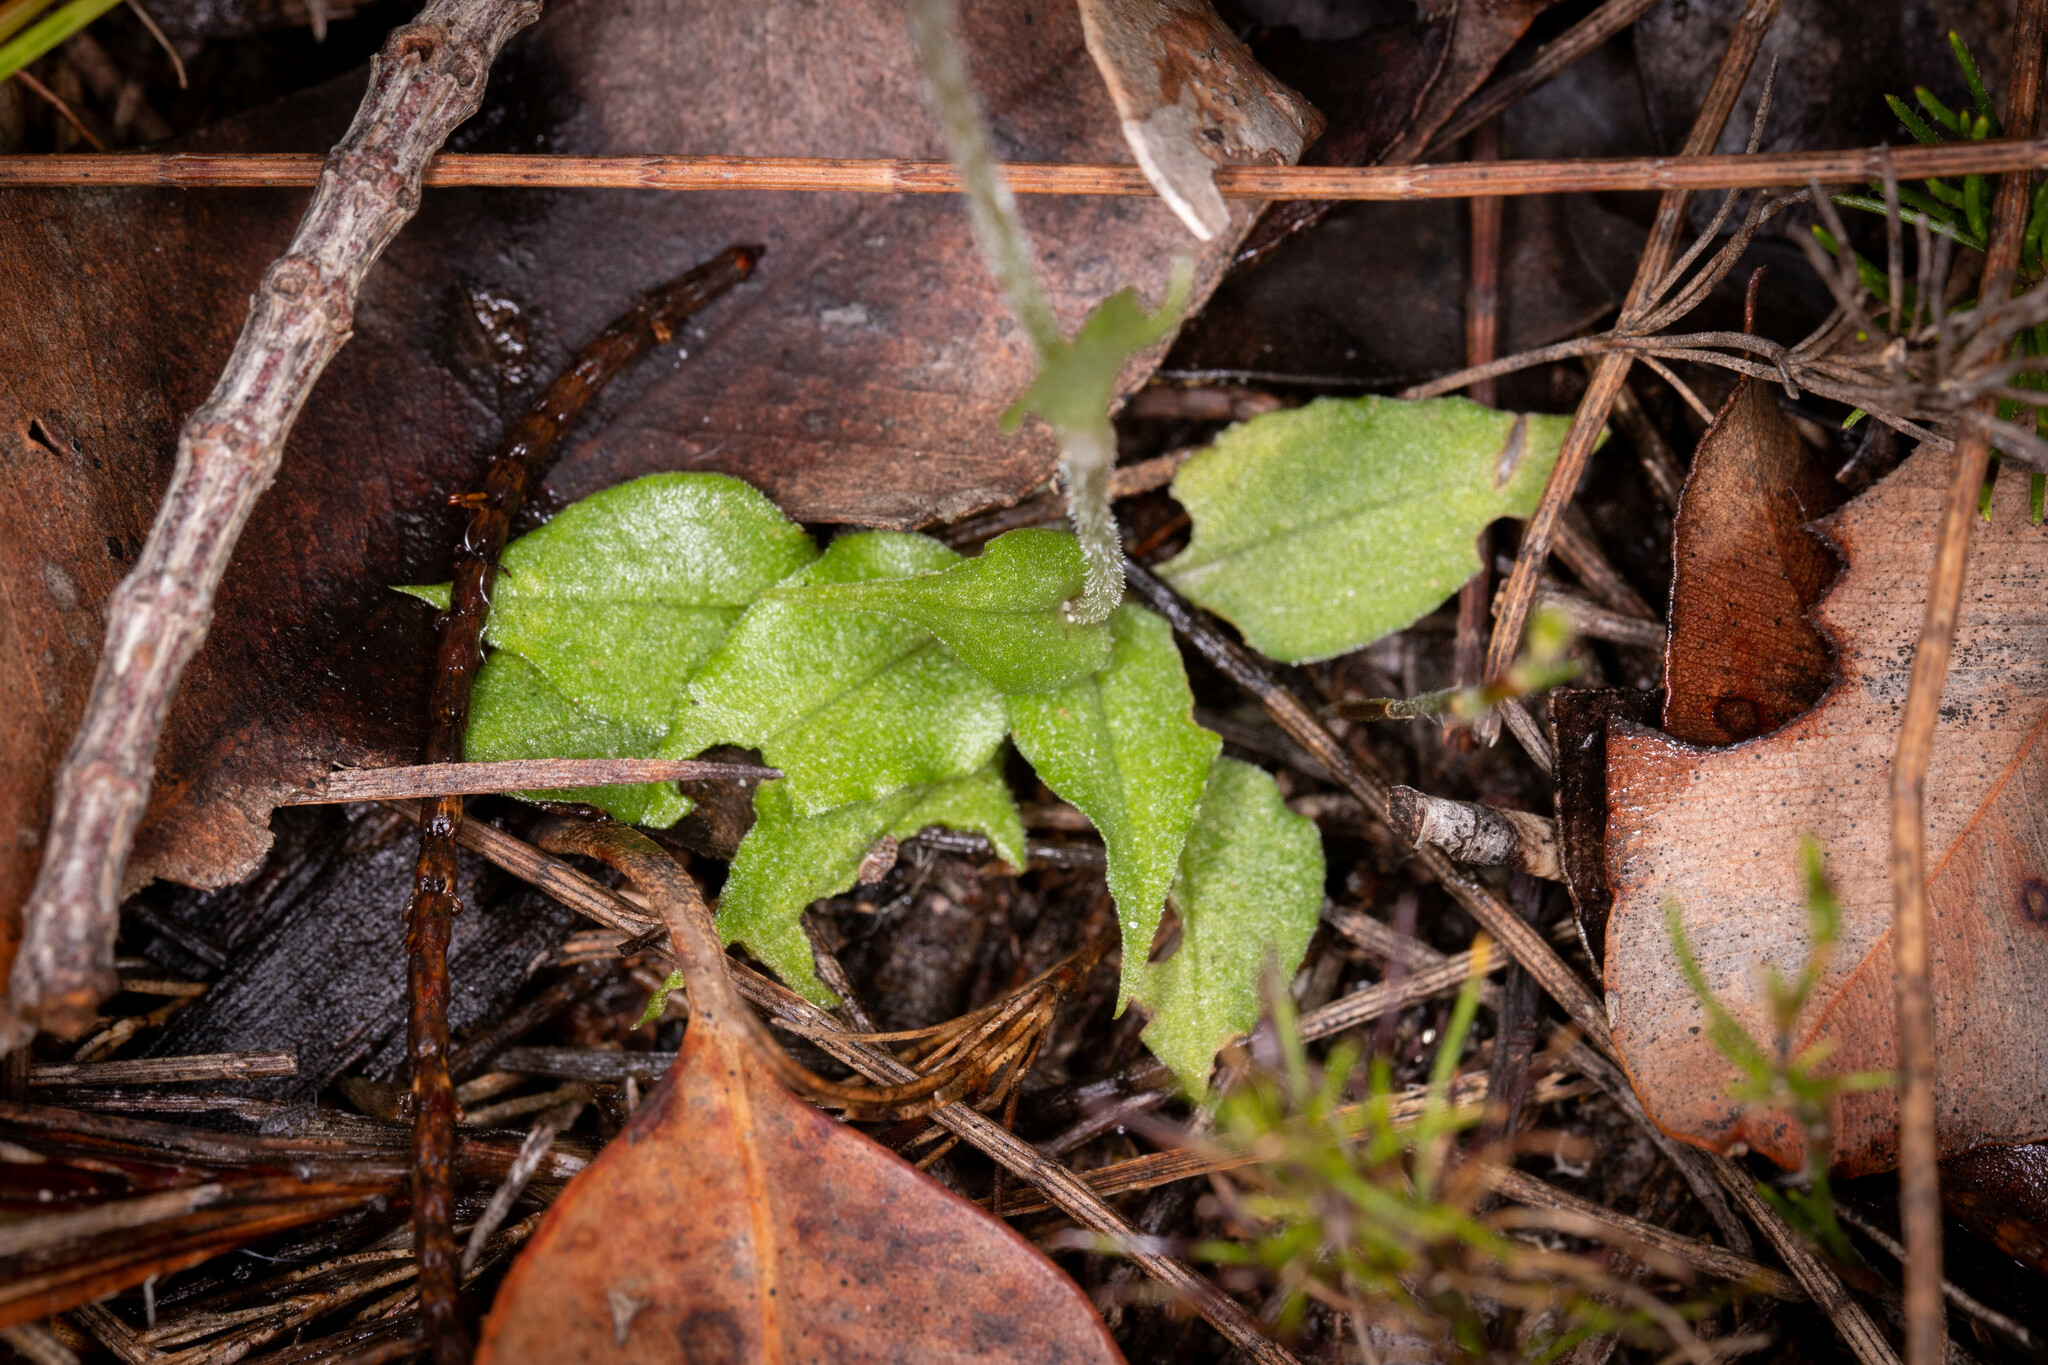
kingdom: Plantae
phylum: Tracheophyta
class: Liliopsida
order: Asparagales
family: Orchidaceae
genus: Pterostylis
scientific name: Pterostylis erubescens
